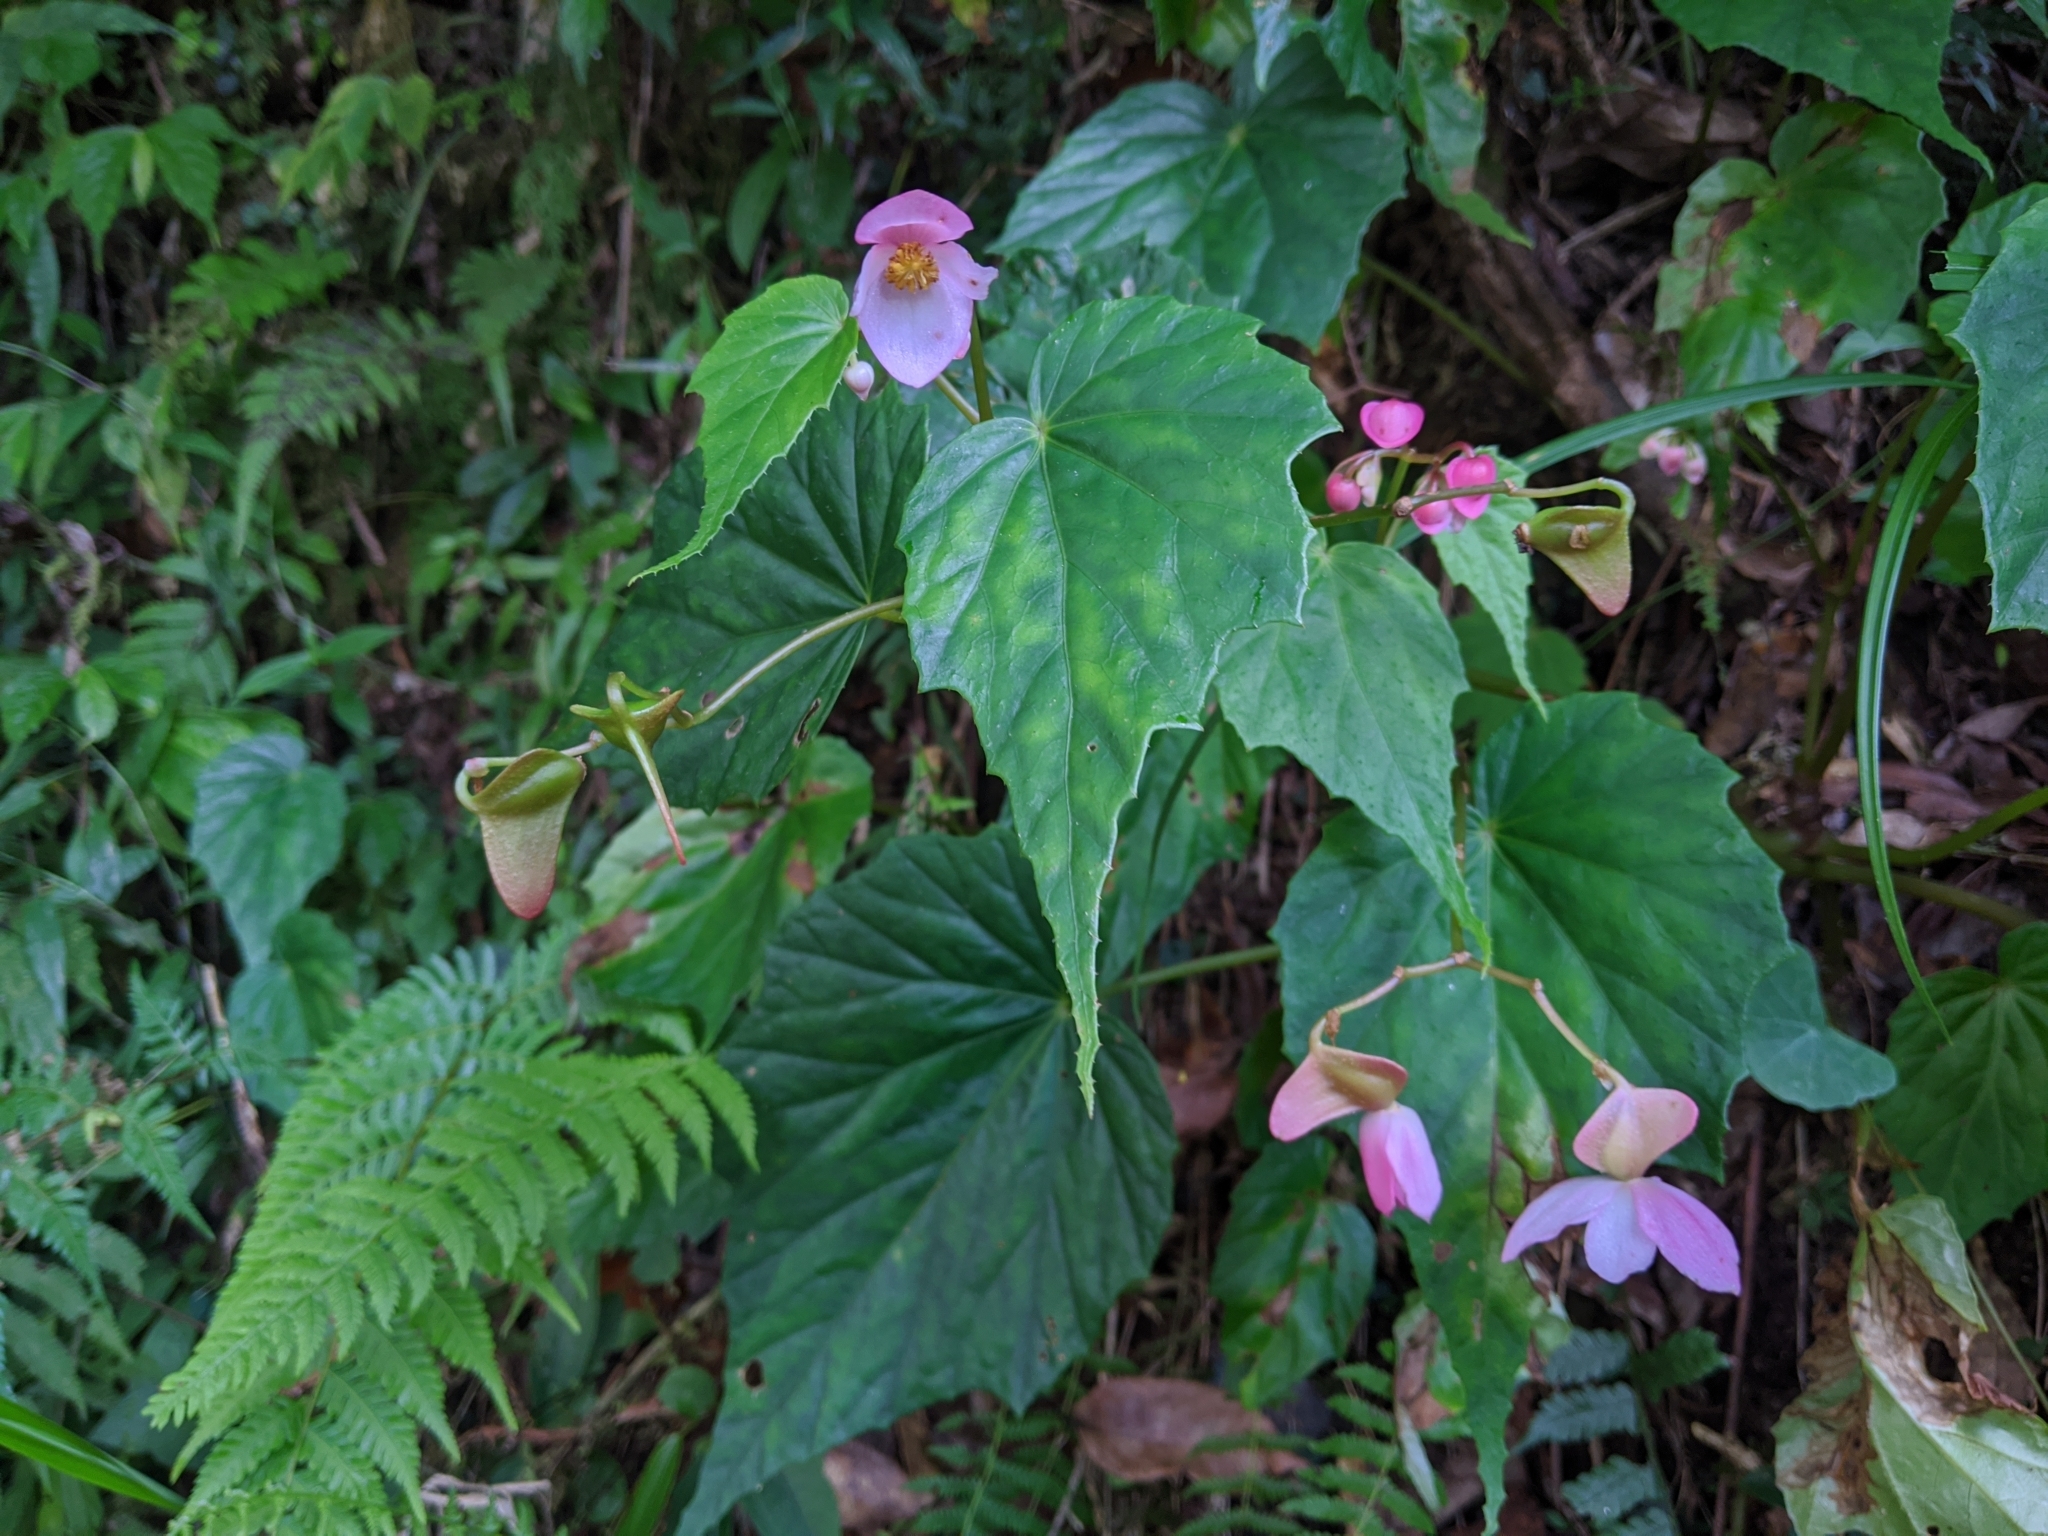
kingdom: Plantae
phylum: Tracheophyta
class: Magnoliopsida
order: Cucurbitales
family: Begoniaceae
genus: Begonia
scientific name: Begonia formosana
